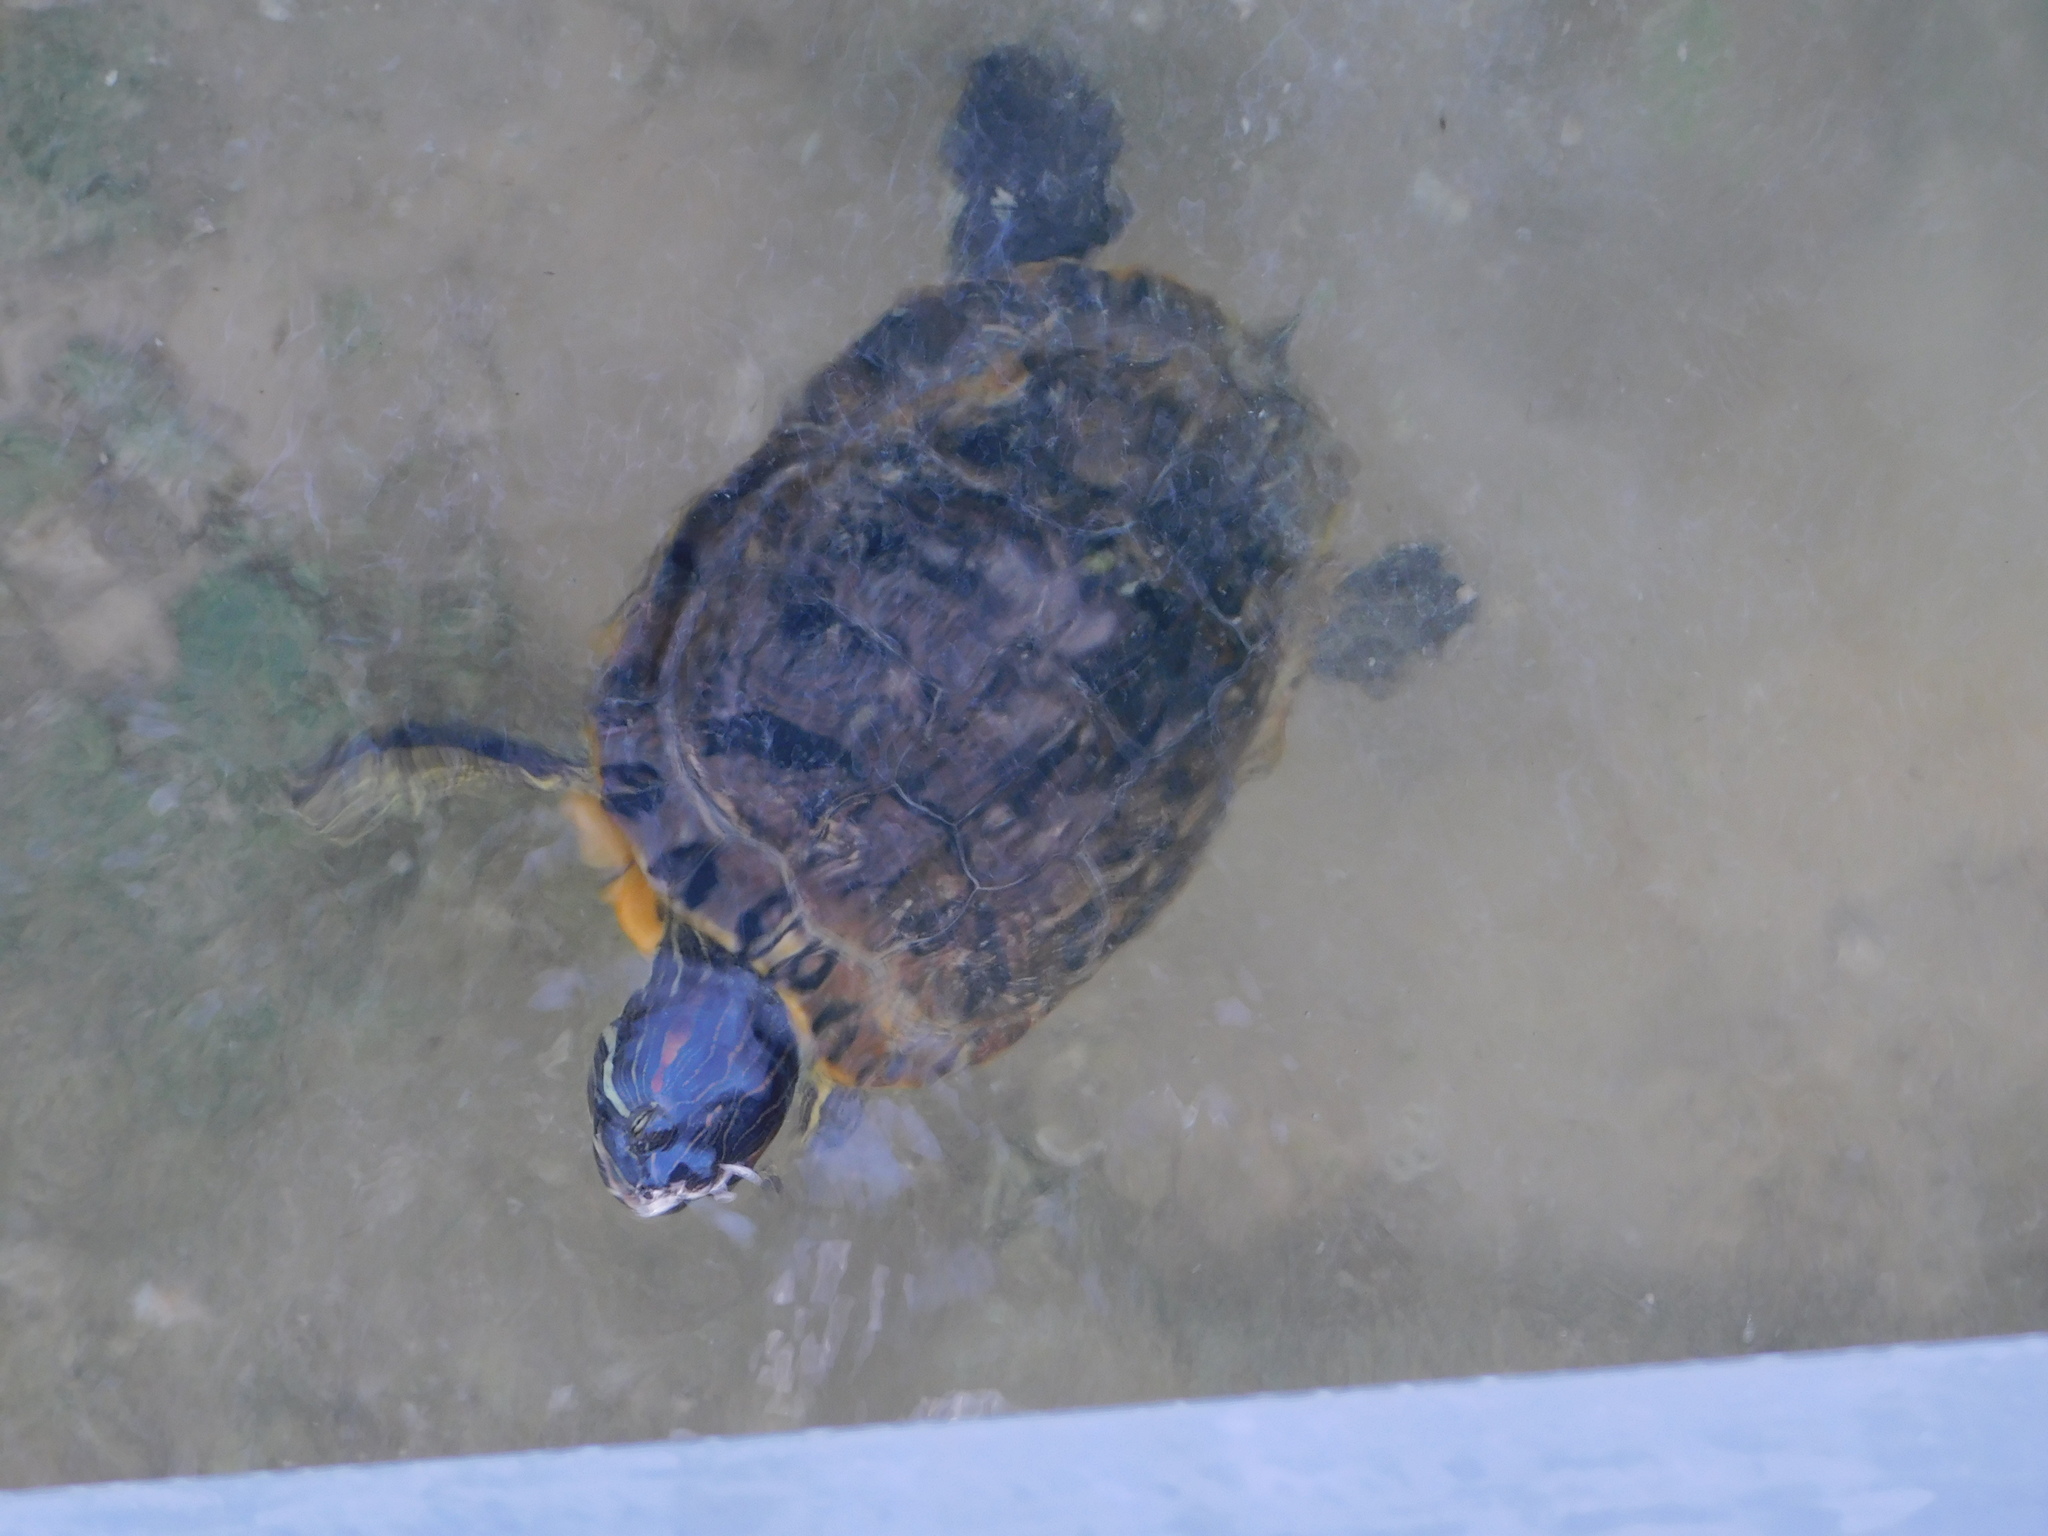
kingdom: Animalia
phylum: Chordata
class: Testudines
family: Emydidae
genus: Trachemys
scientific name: Trachemys scripta
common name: Slider
